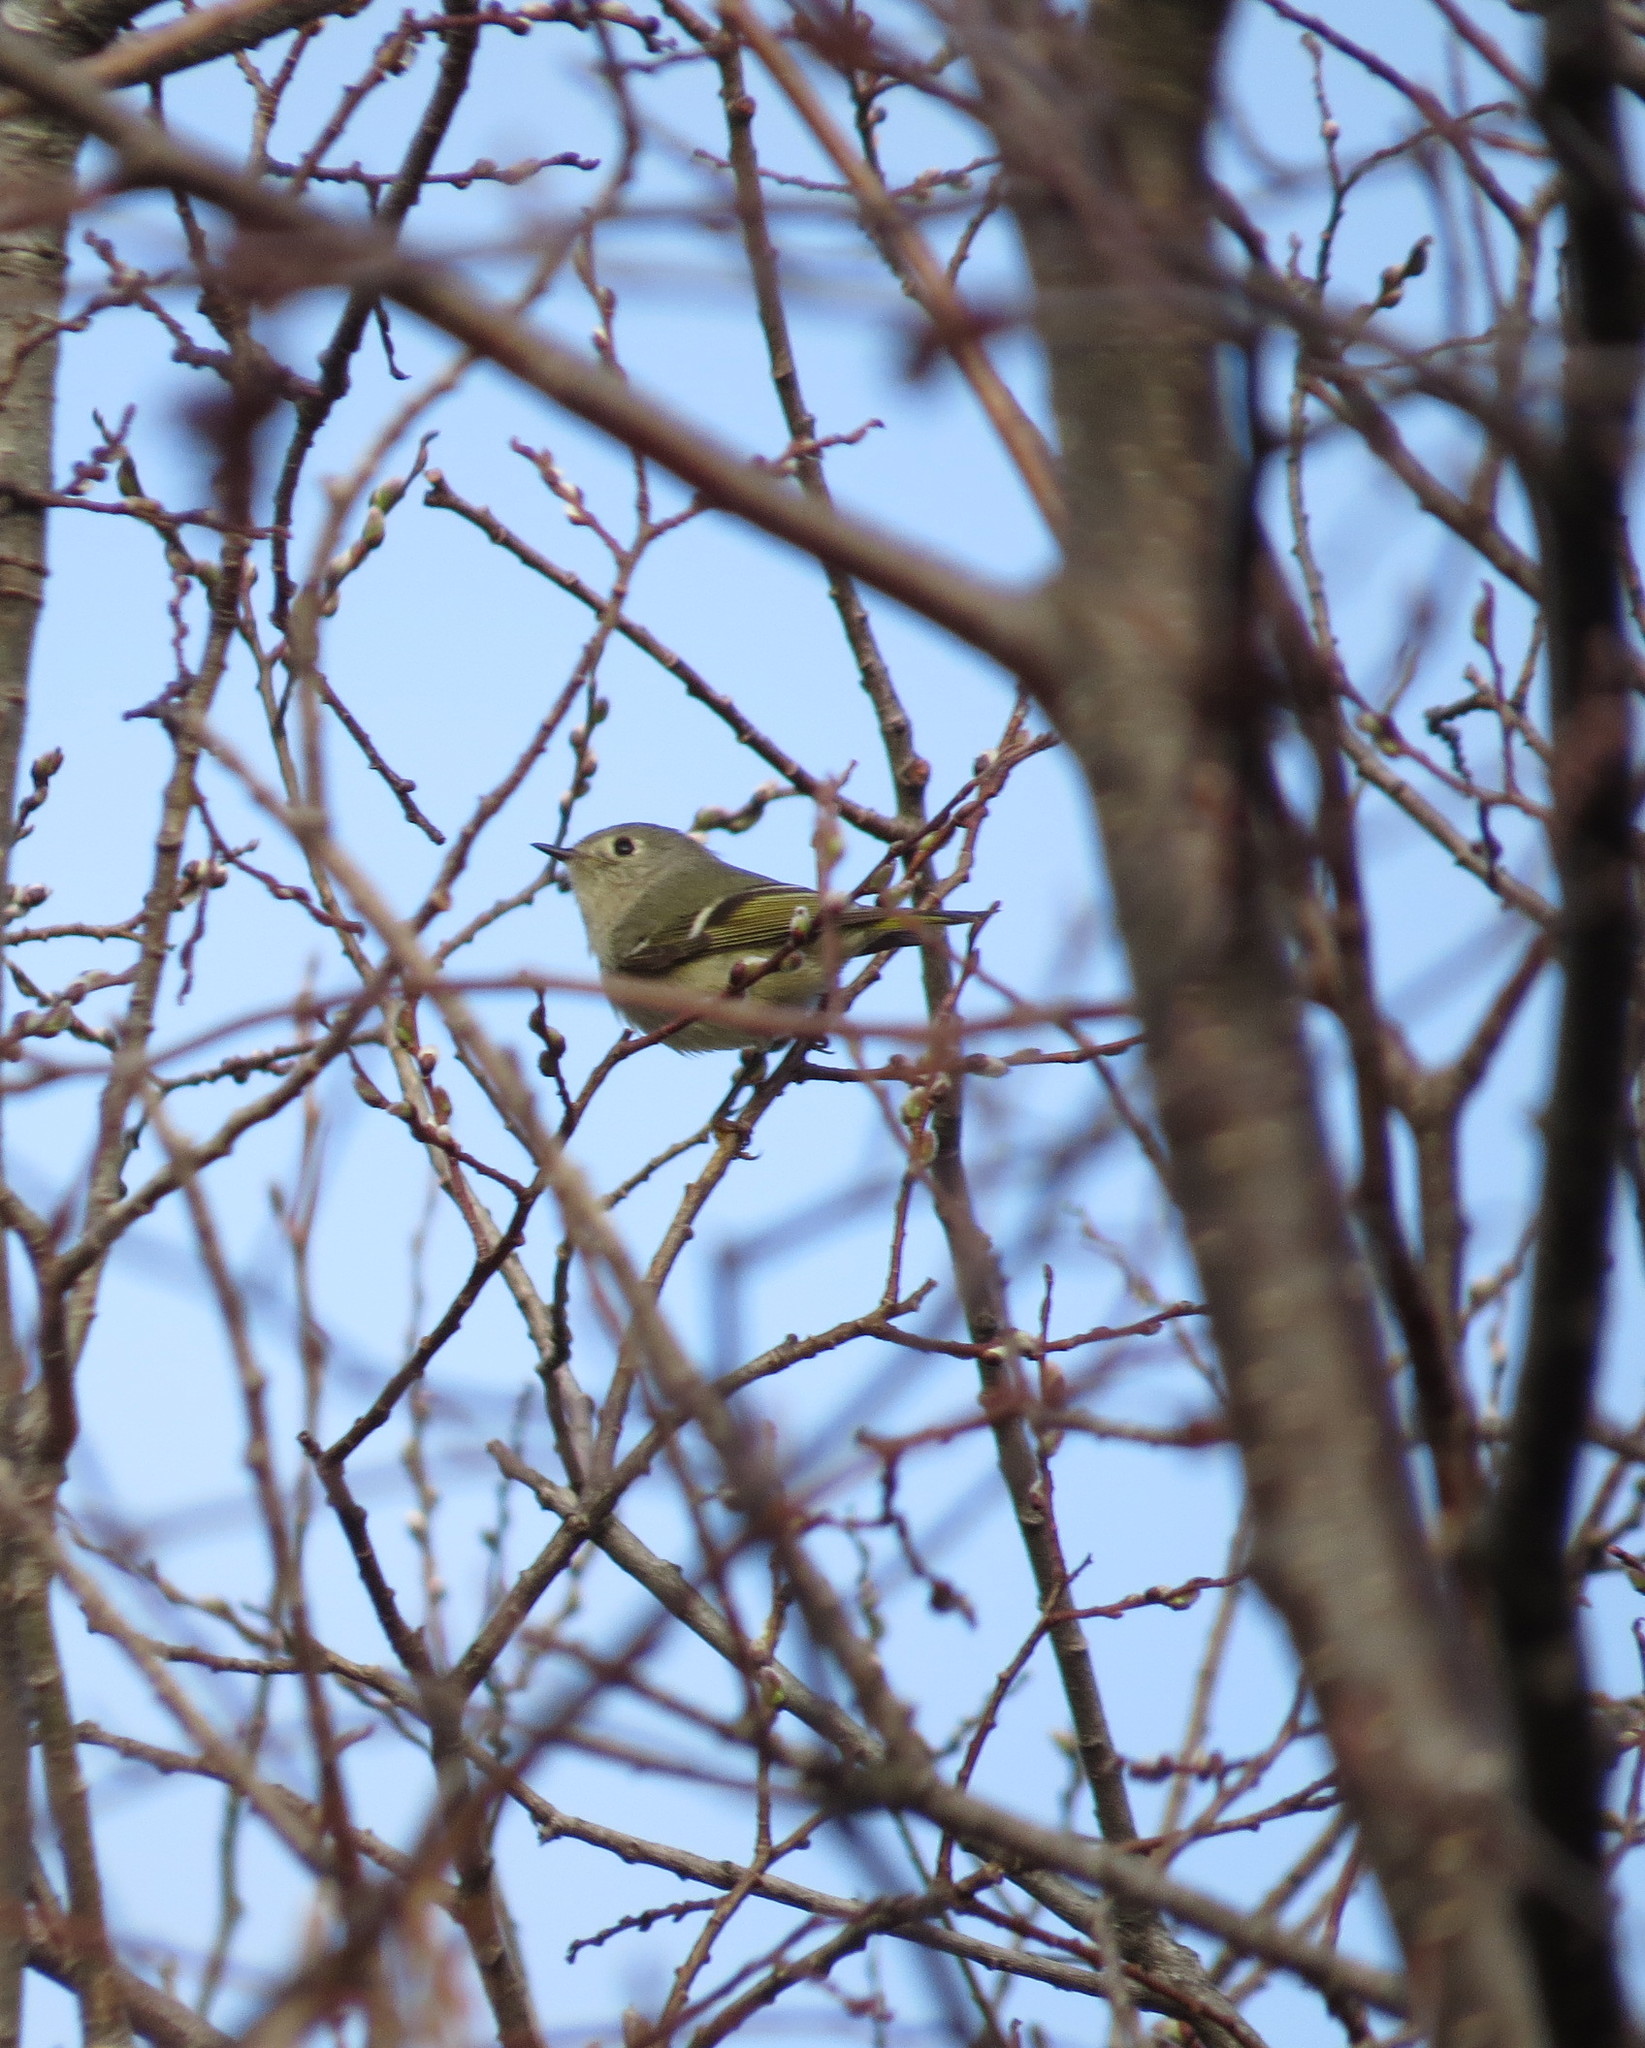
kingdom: Animalia
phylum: Chordata
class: Aves
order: Passeriformes
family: Regulidae
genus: Regulus
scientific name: Regulus calendula
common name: Ruby-crowned kinglet
